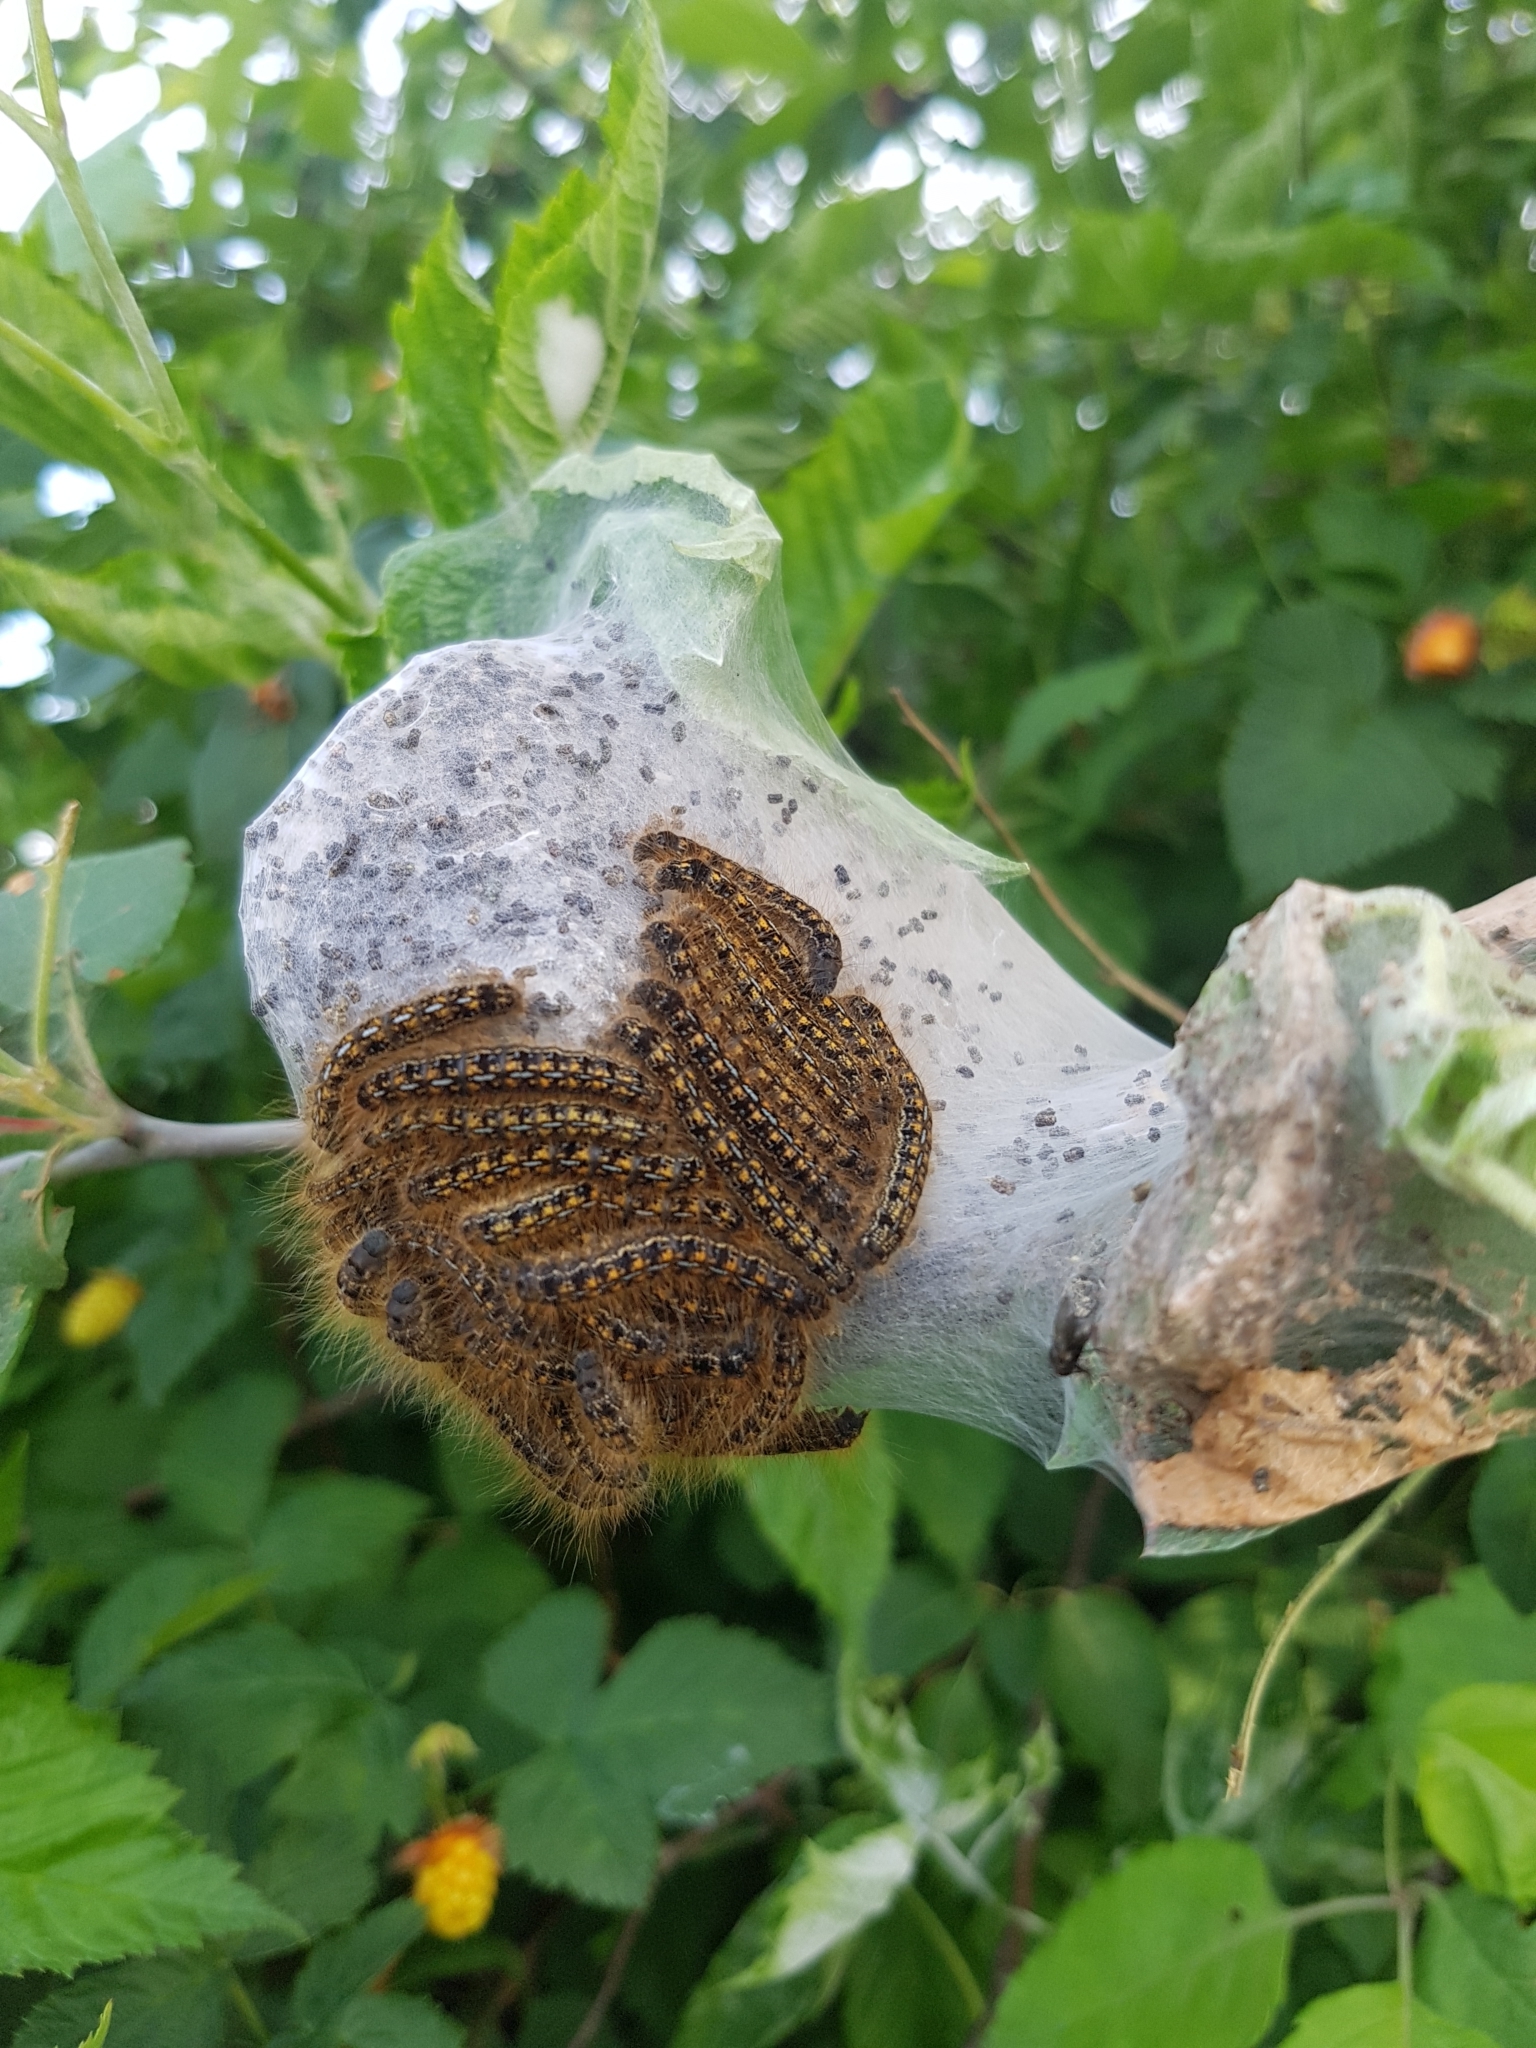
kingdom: Animalia
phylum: Arthropoda
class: Insecta
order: Lepidoptera
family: Lasiocampidae
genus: Malacosoma
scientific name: Malacosoma californica
